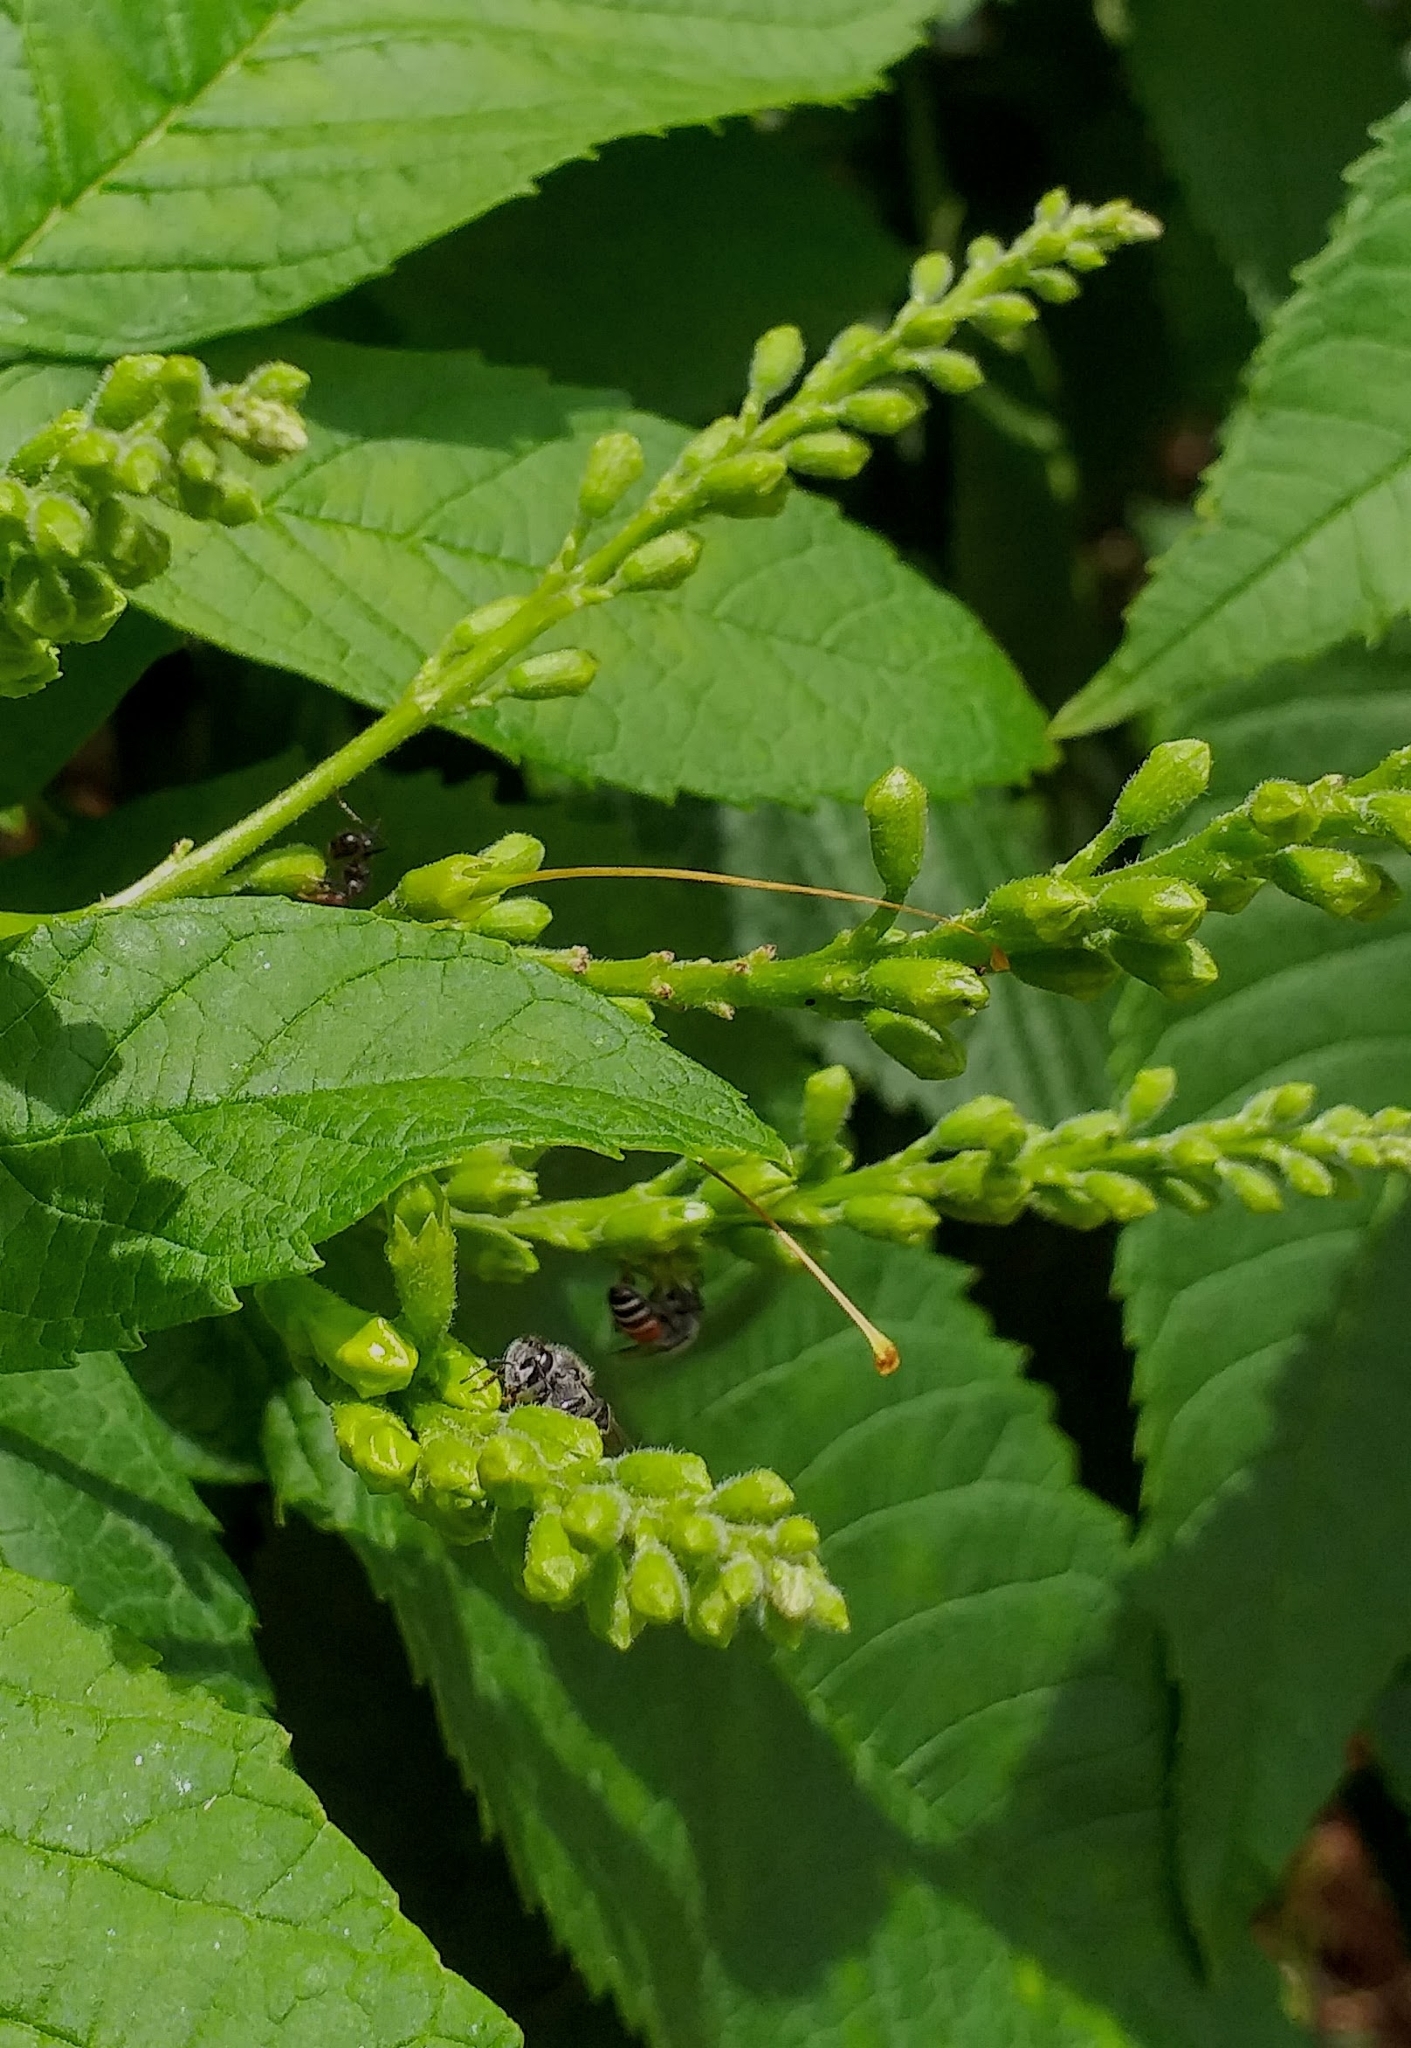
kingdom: Animalia
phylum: Arthropoda
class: Insecta
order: Hymenoptera
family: Apidae
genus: Apis
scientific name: Apis florea
